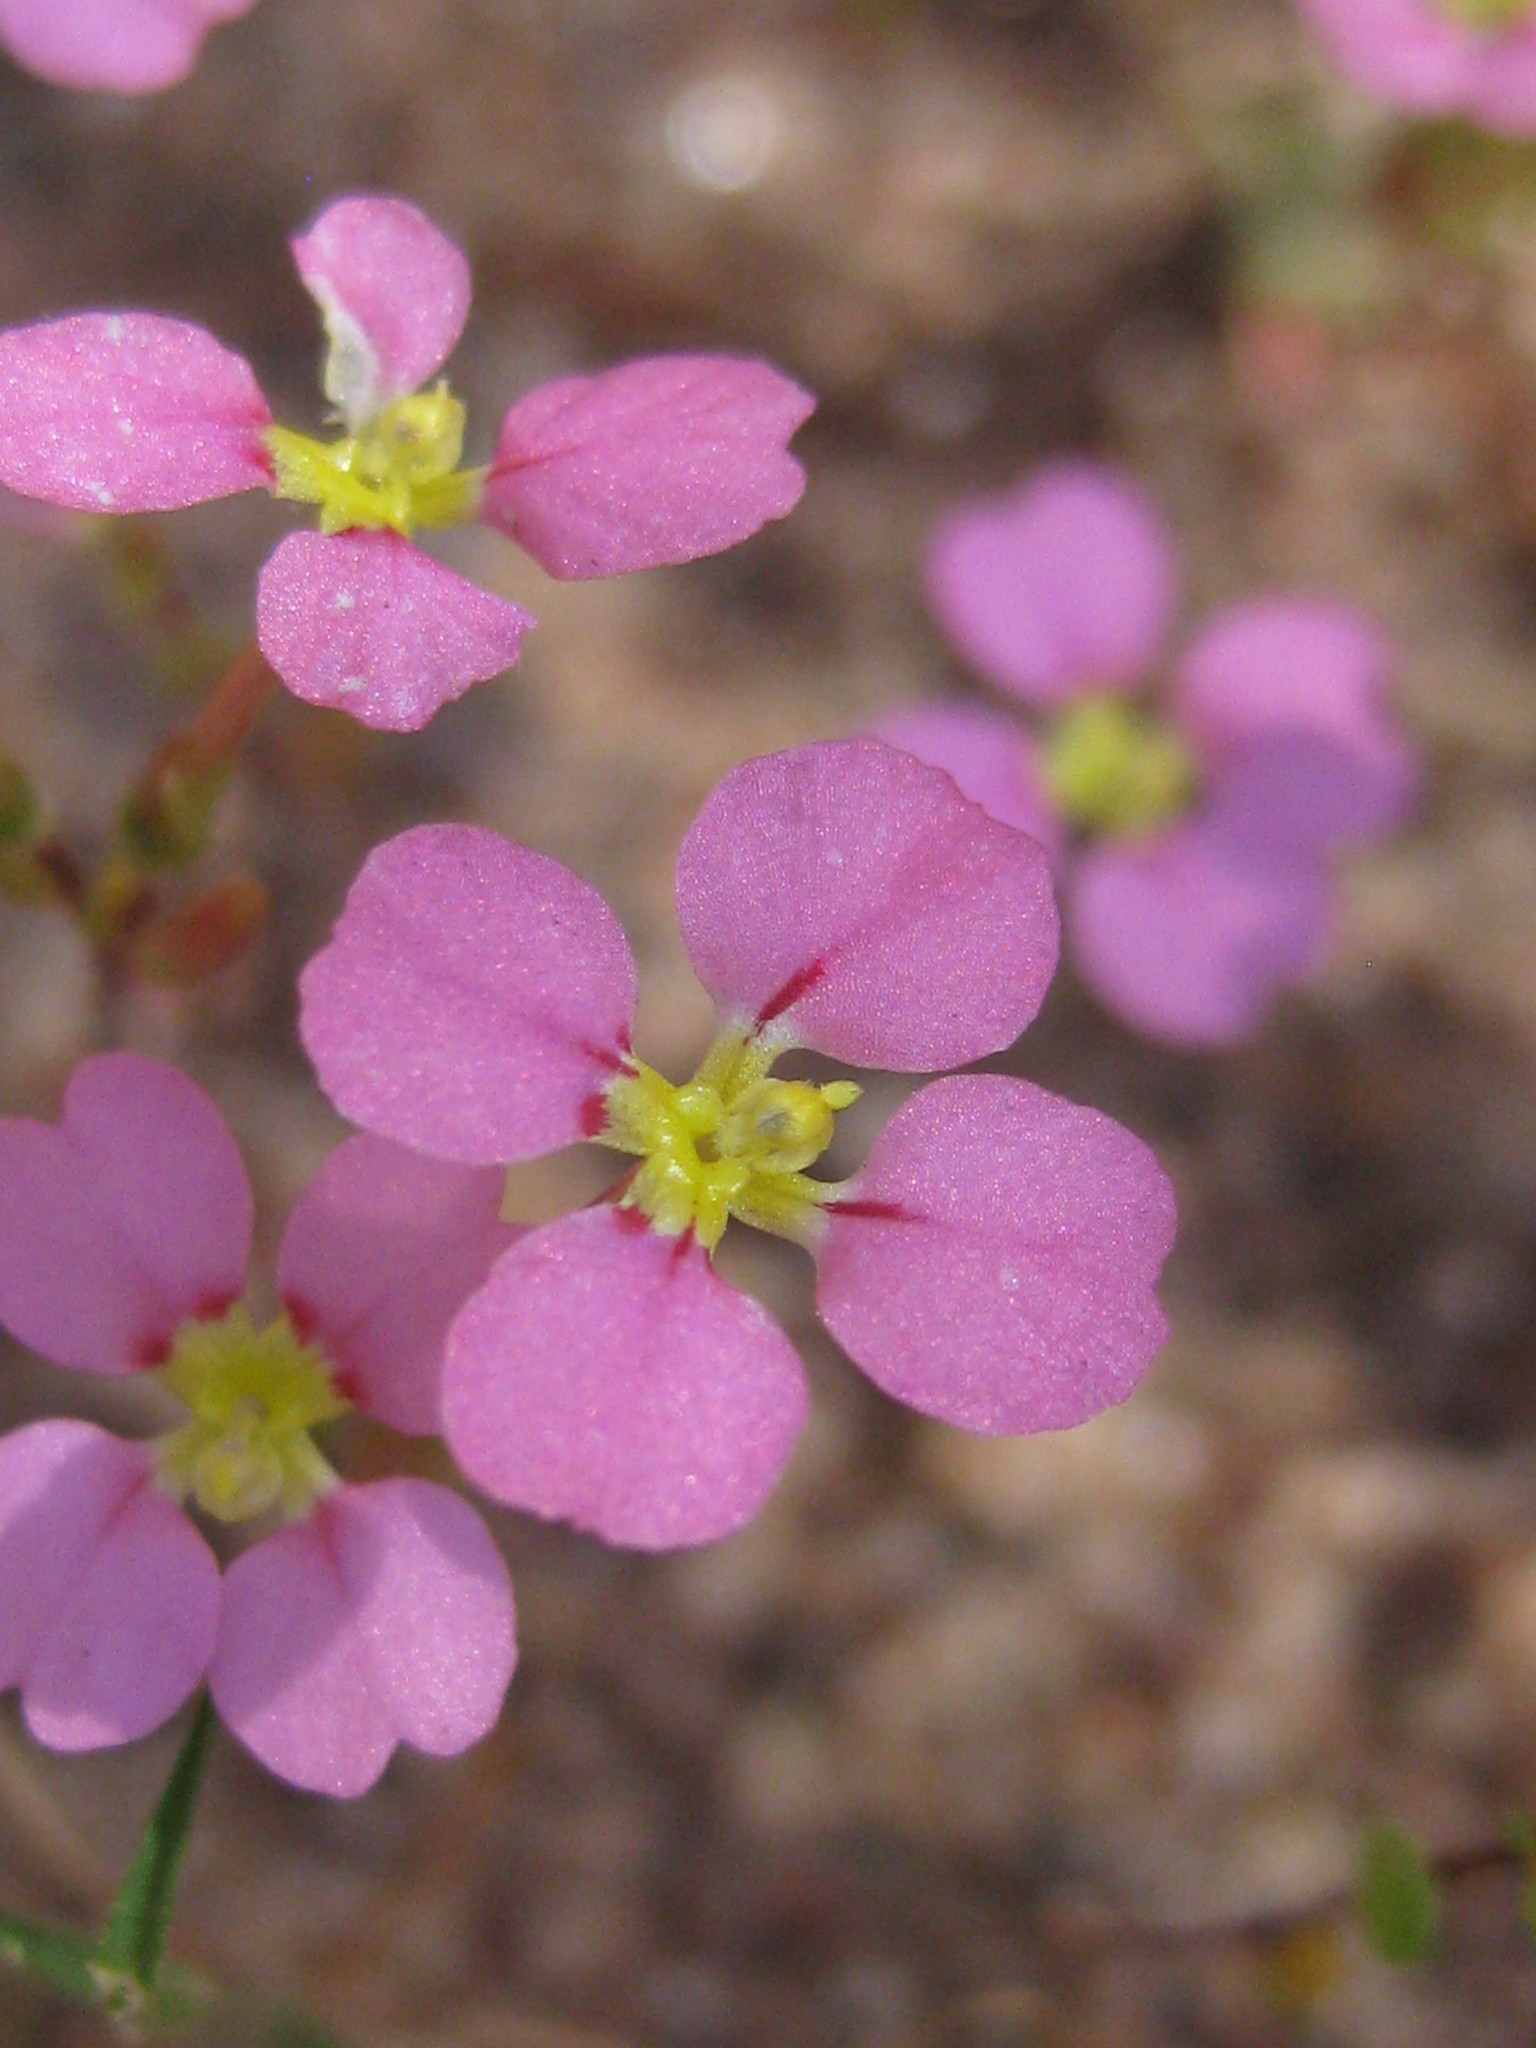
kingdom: Plantae
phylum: Tracheophyta
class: Magnoliopsida
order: Asterales
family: Stylidiaceae
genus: Levenhookia
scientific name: Levenhookia leptantha
